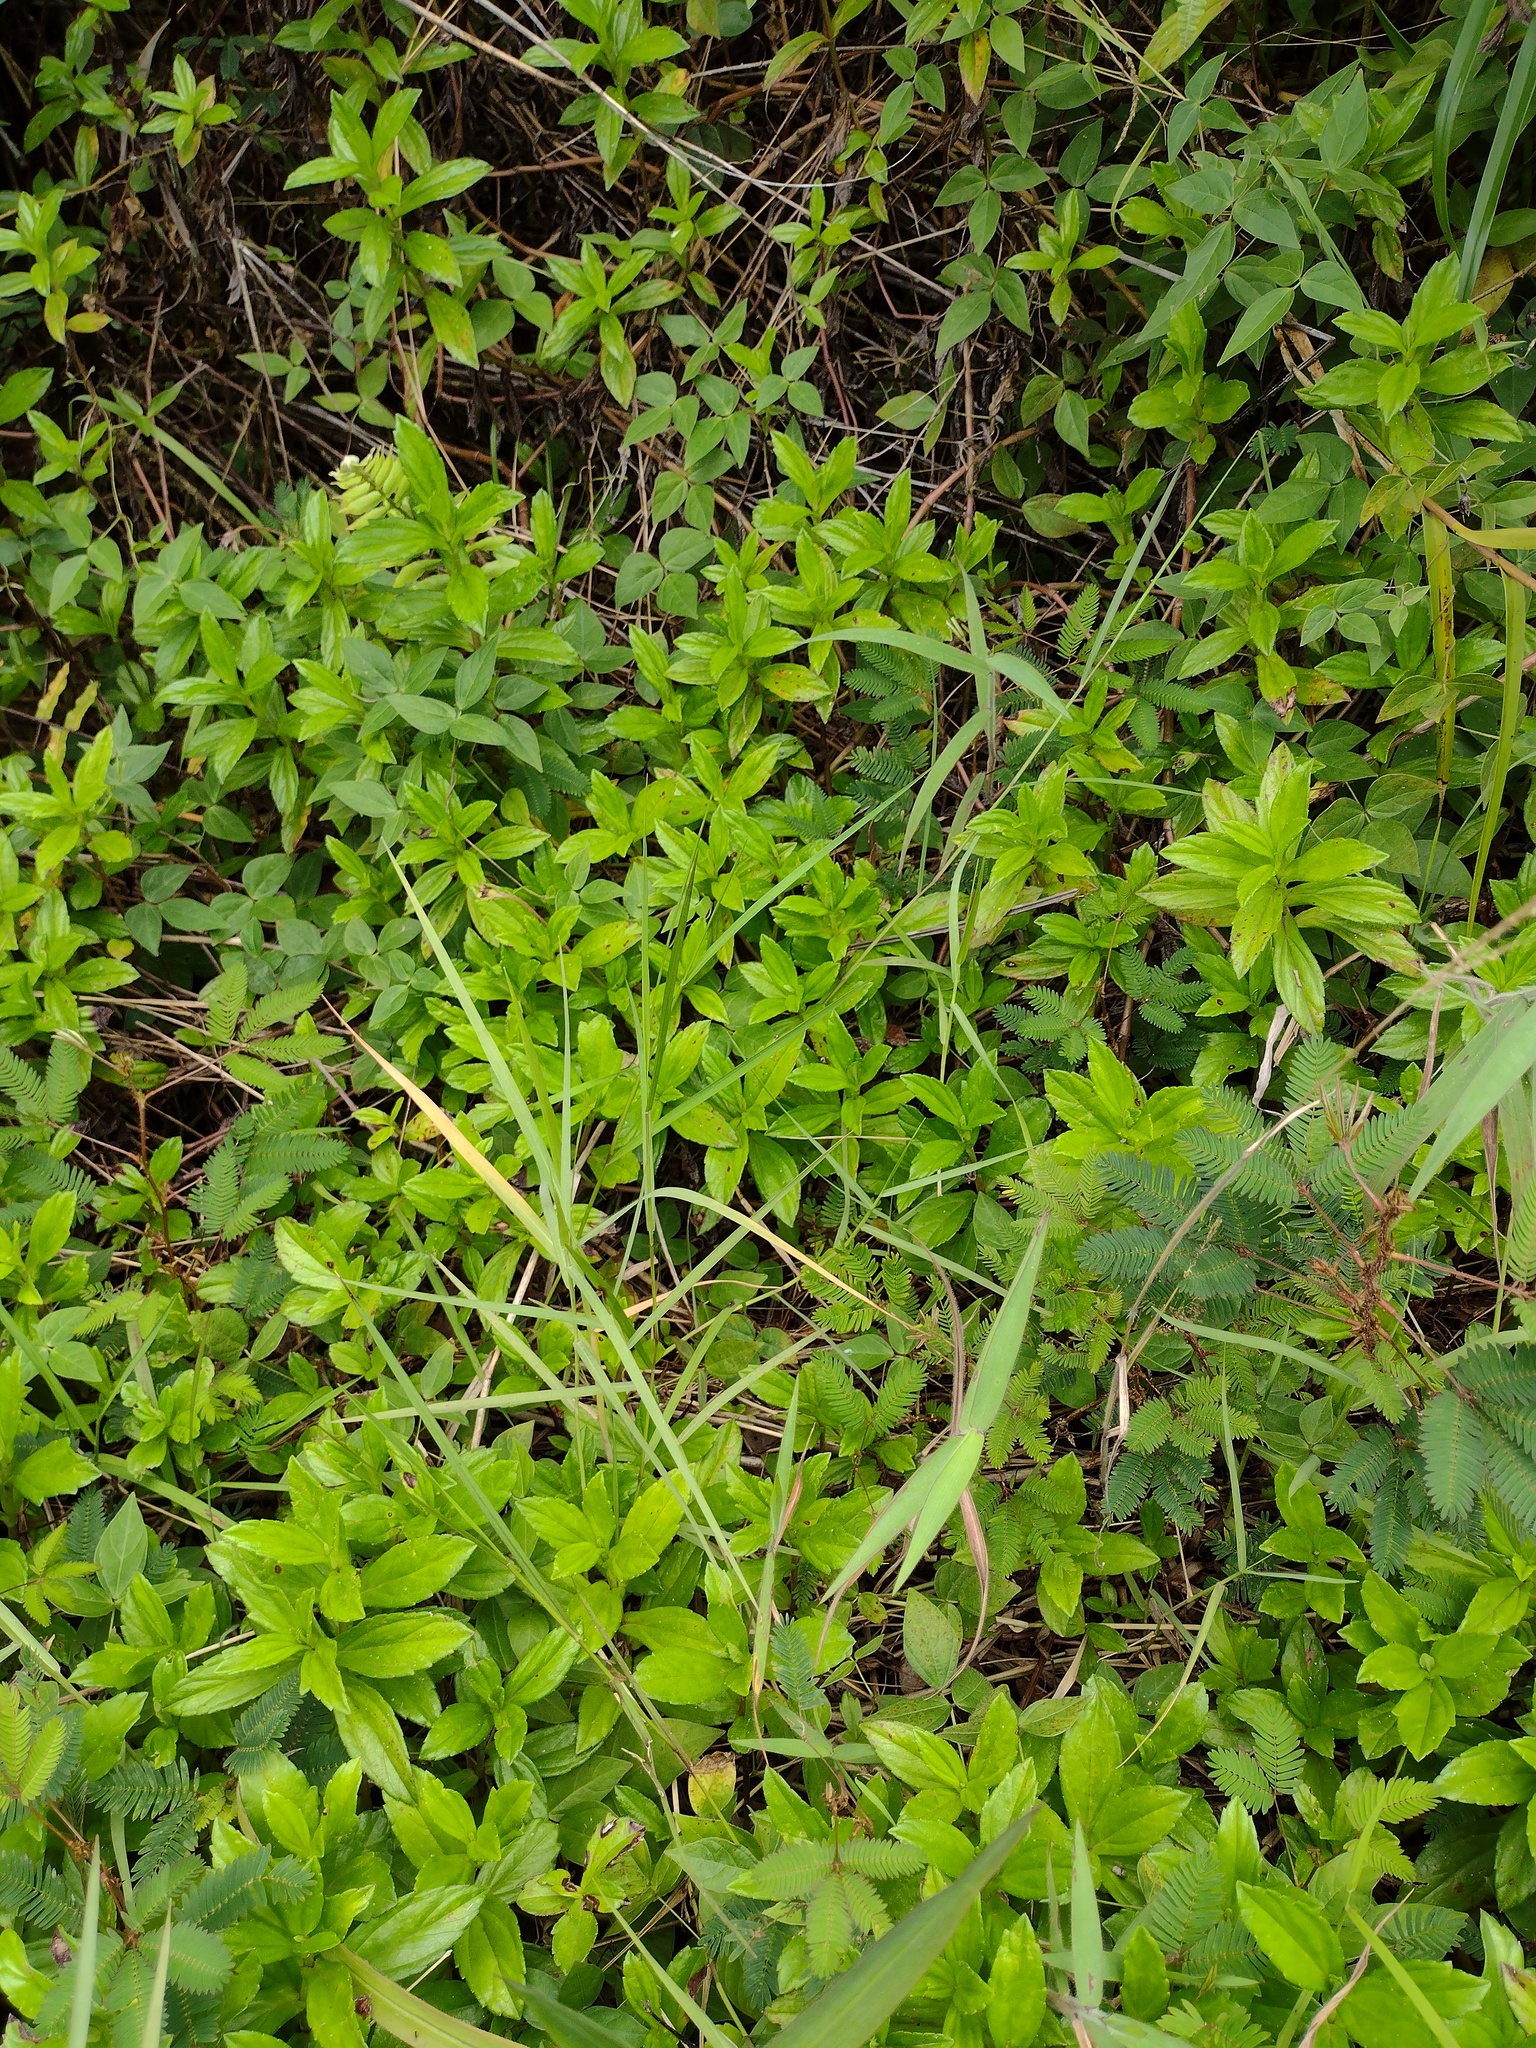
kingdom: Plantae
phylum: Tracheophyta
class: Magnoliopsida
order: Asterales
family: Asteraceae
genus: Sphagneticola
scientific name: Sphagneticola trilobata
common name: Bay biscayne creeping-oxeye
